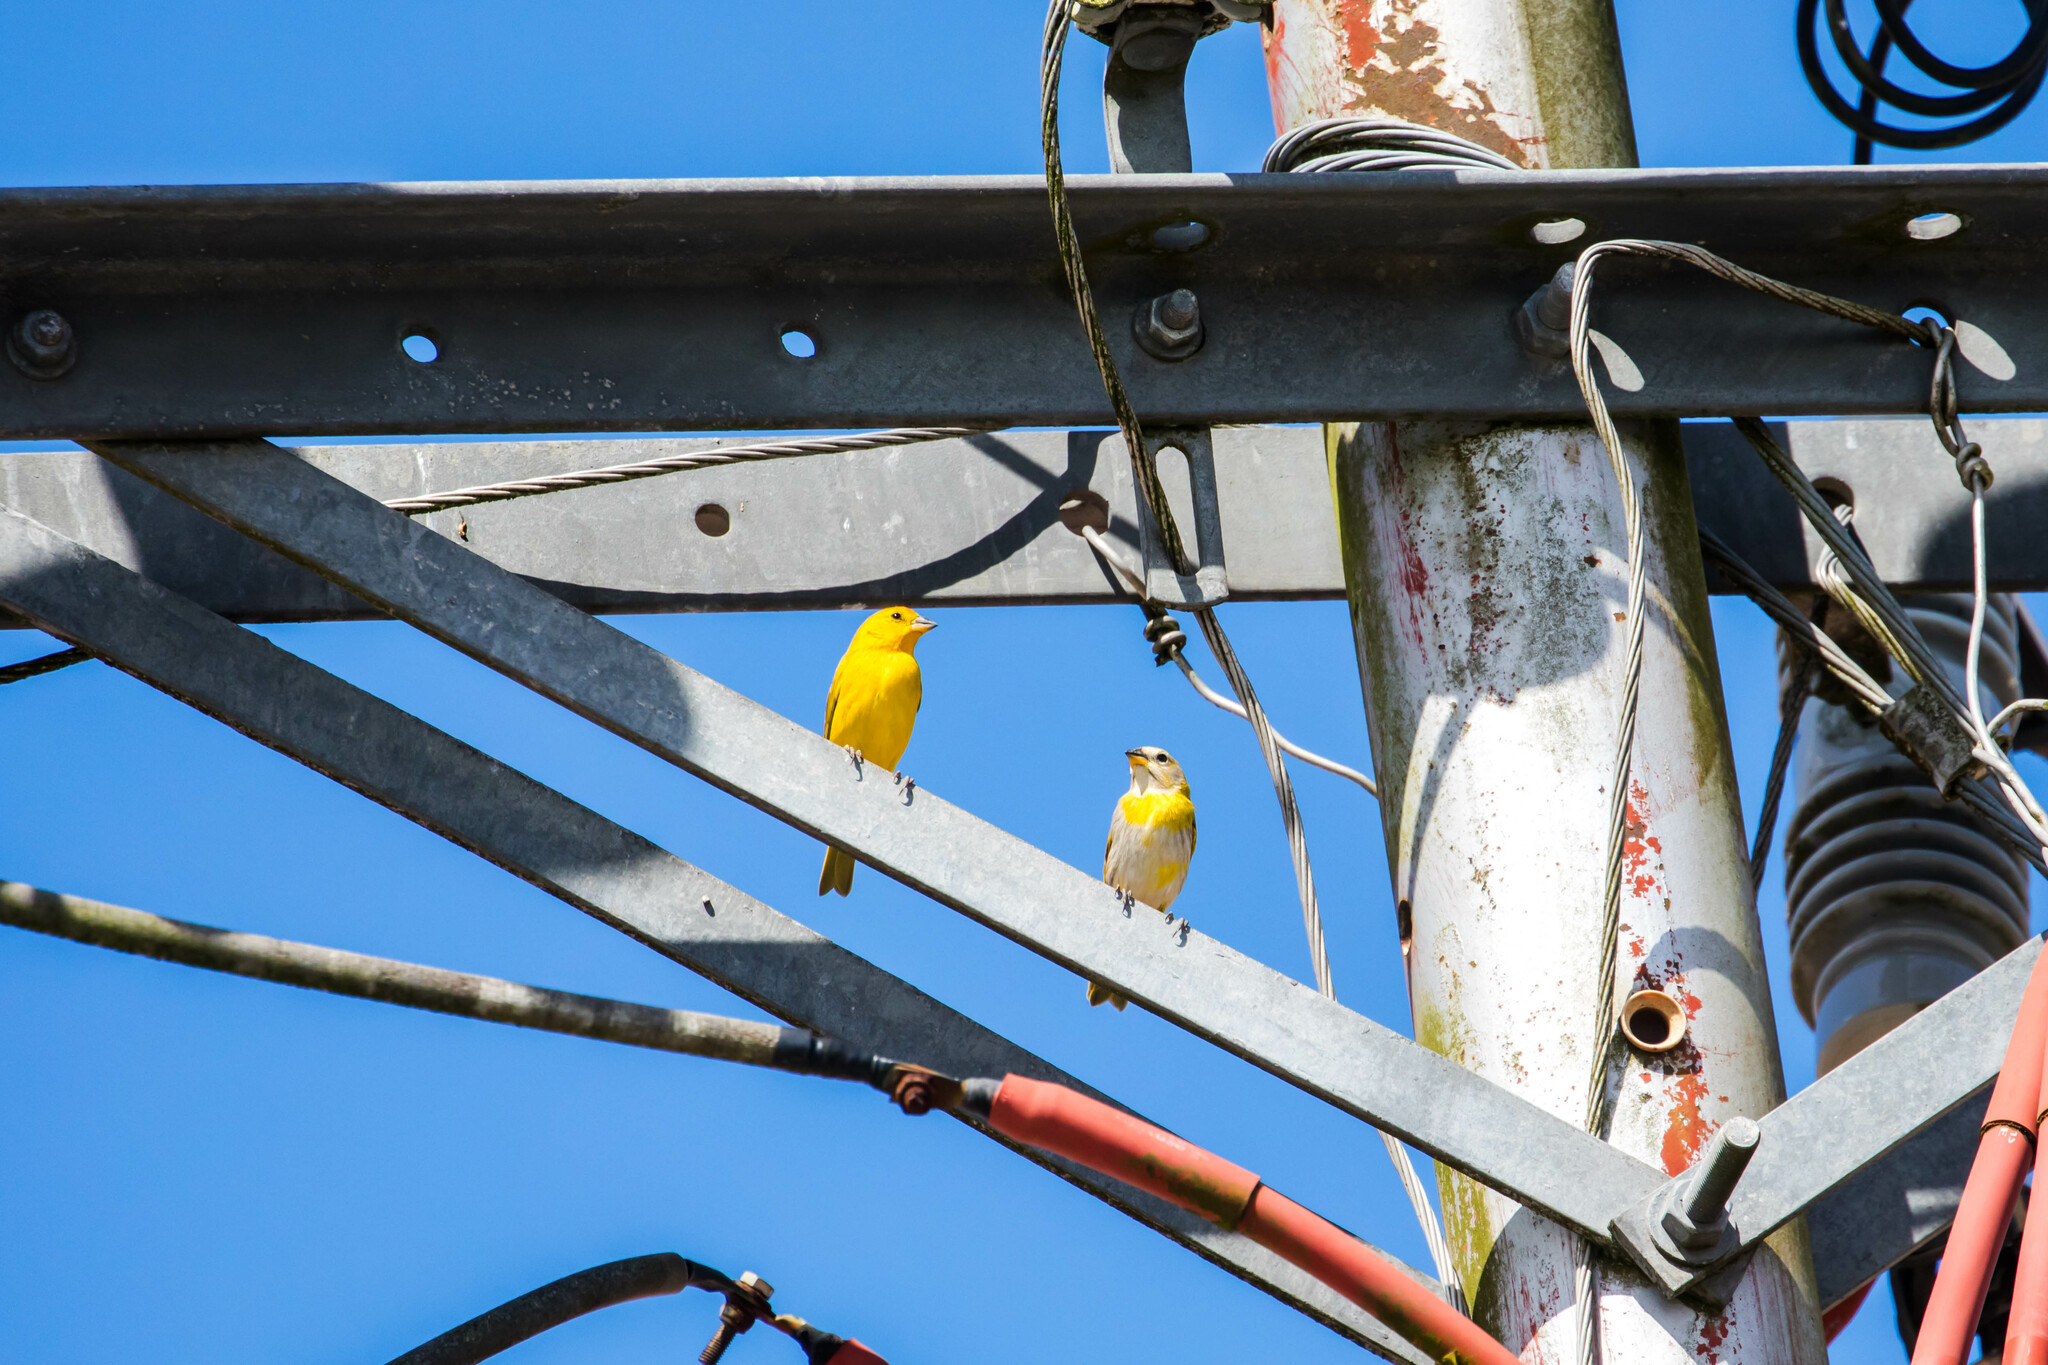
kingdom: Animalia
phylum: Chordata
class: Aves
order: Passeriformes
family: Thraupidae
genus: Sicalis
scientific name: Sicalis flaveola
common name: Saffron finch
